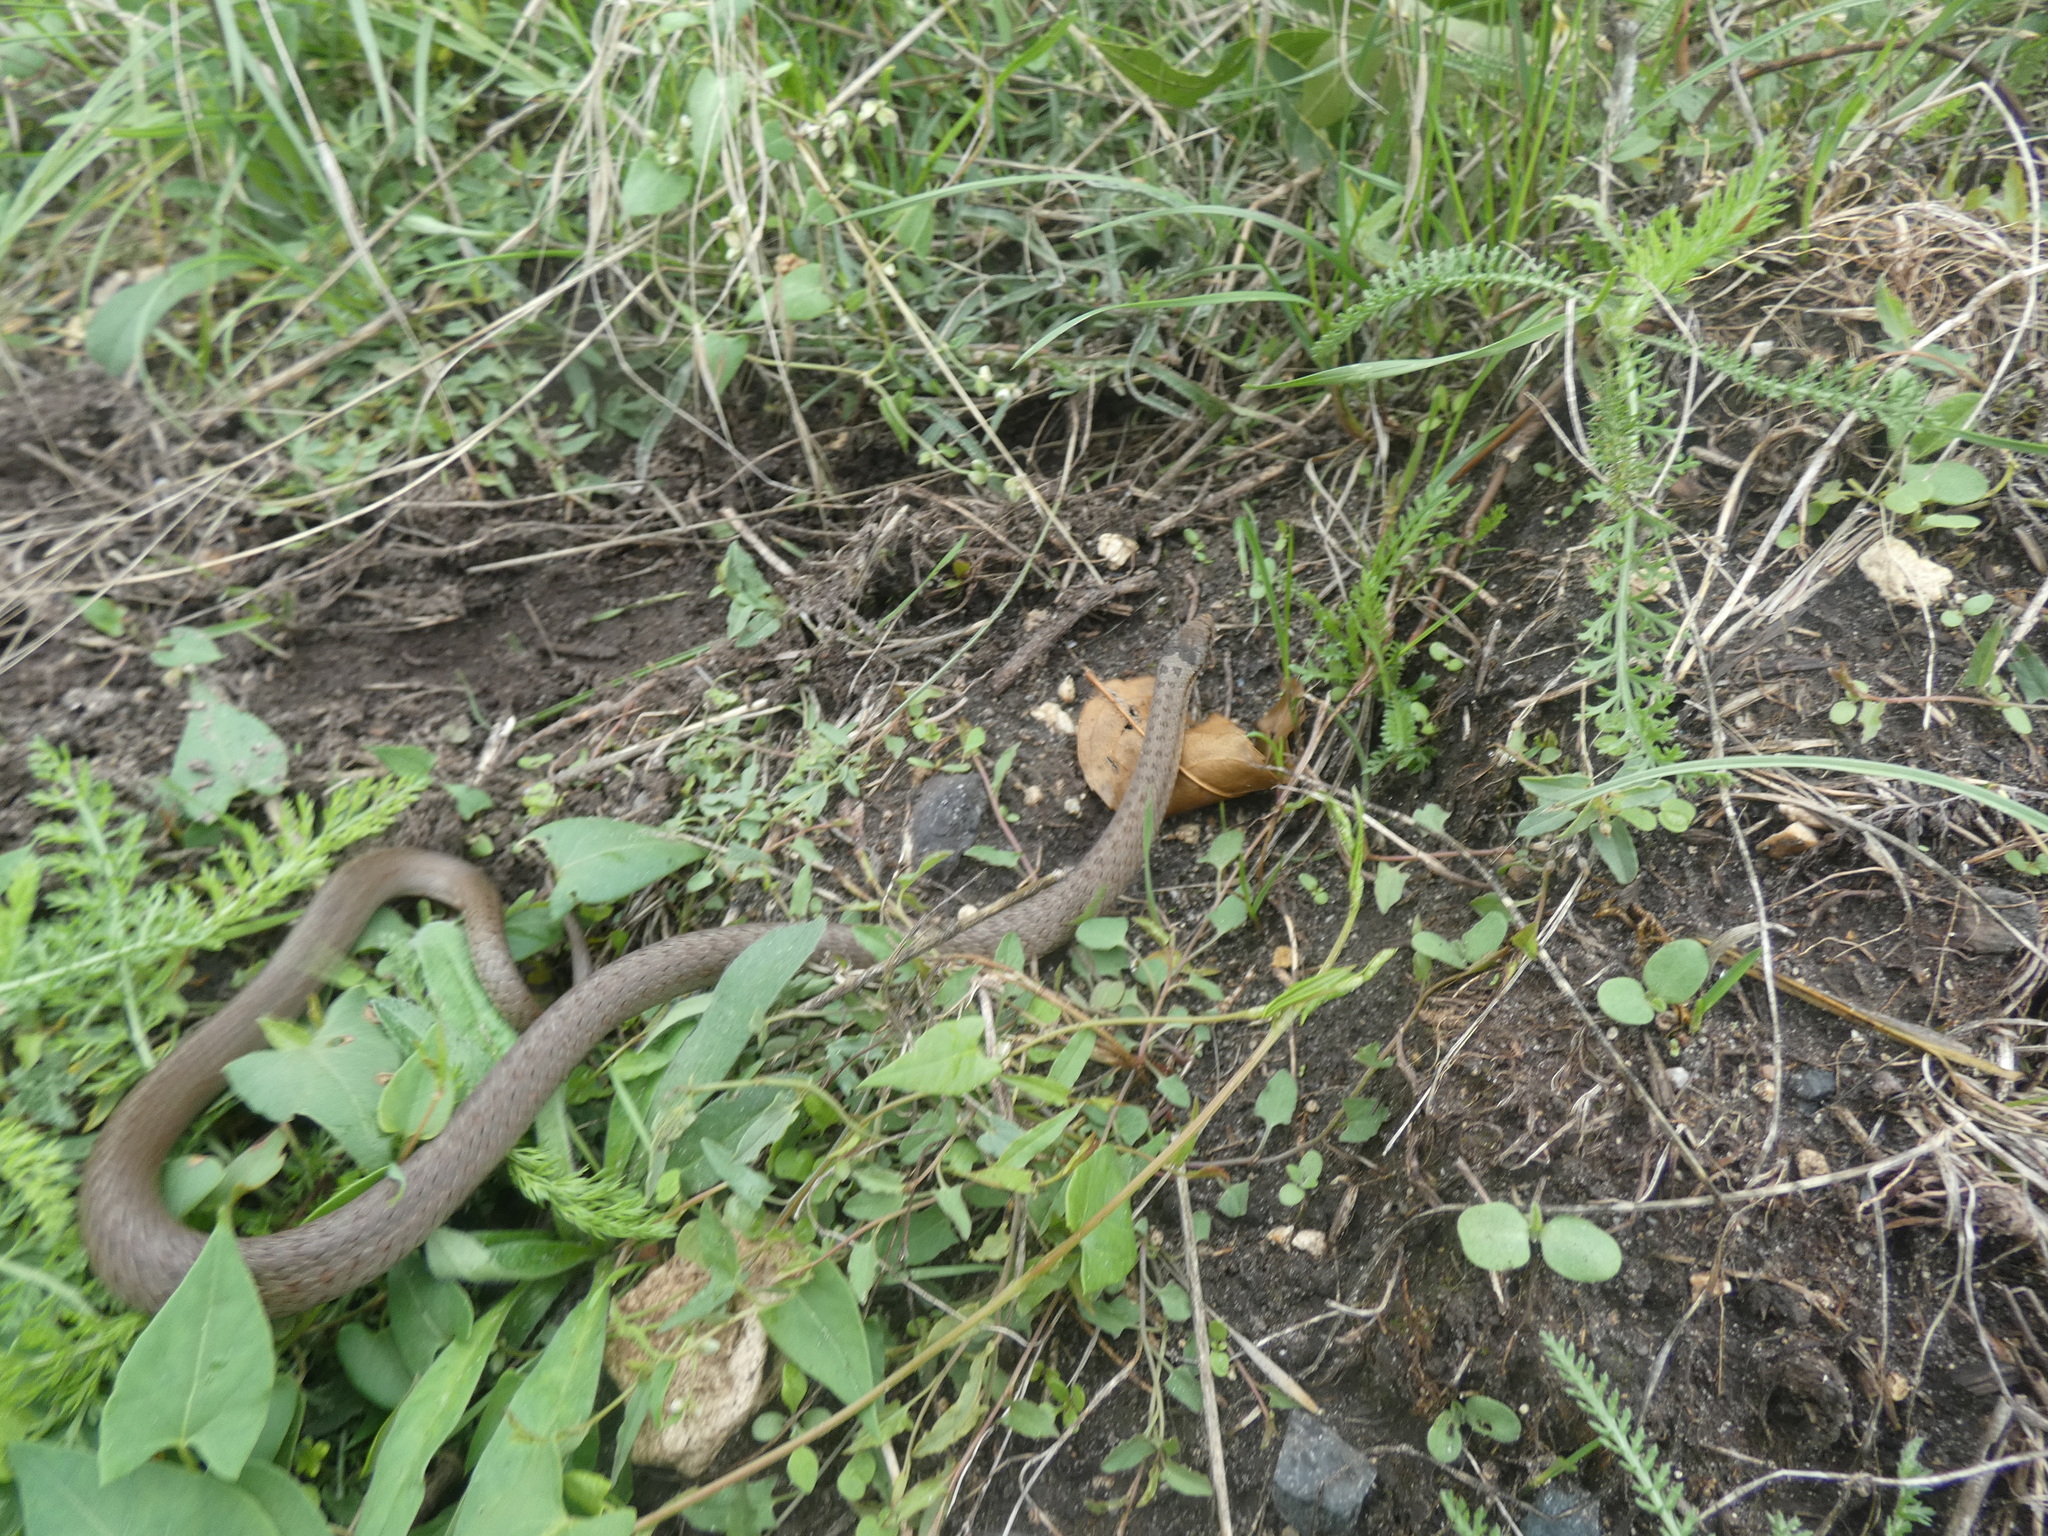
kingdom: Animalia
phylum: Chordata
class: Squamata
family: Colubridae
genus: Coronella
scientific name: Coronella austriaca
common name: Smooth snake
